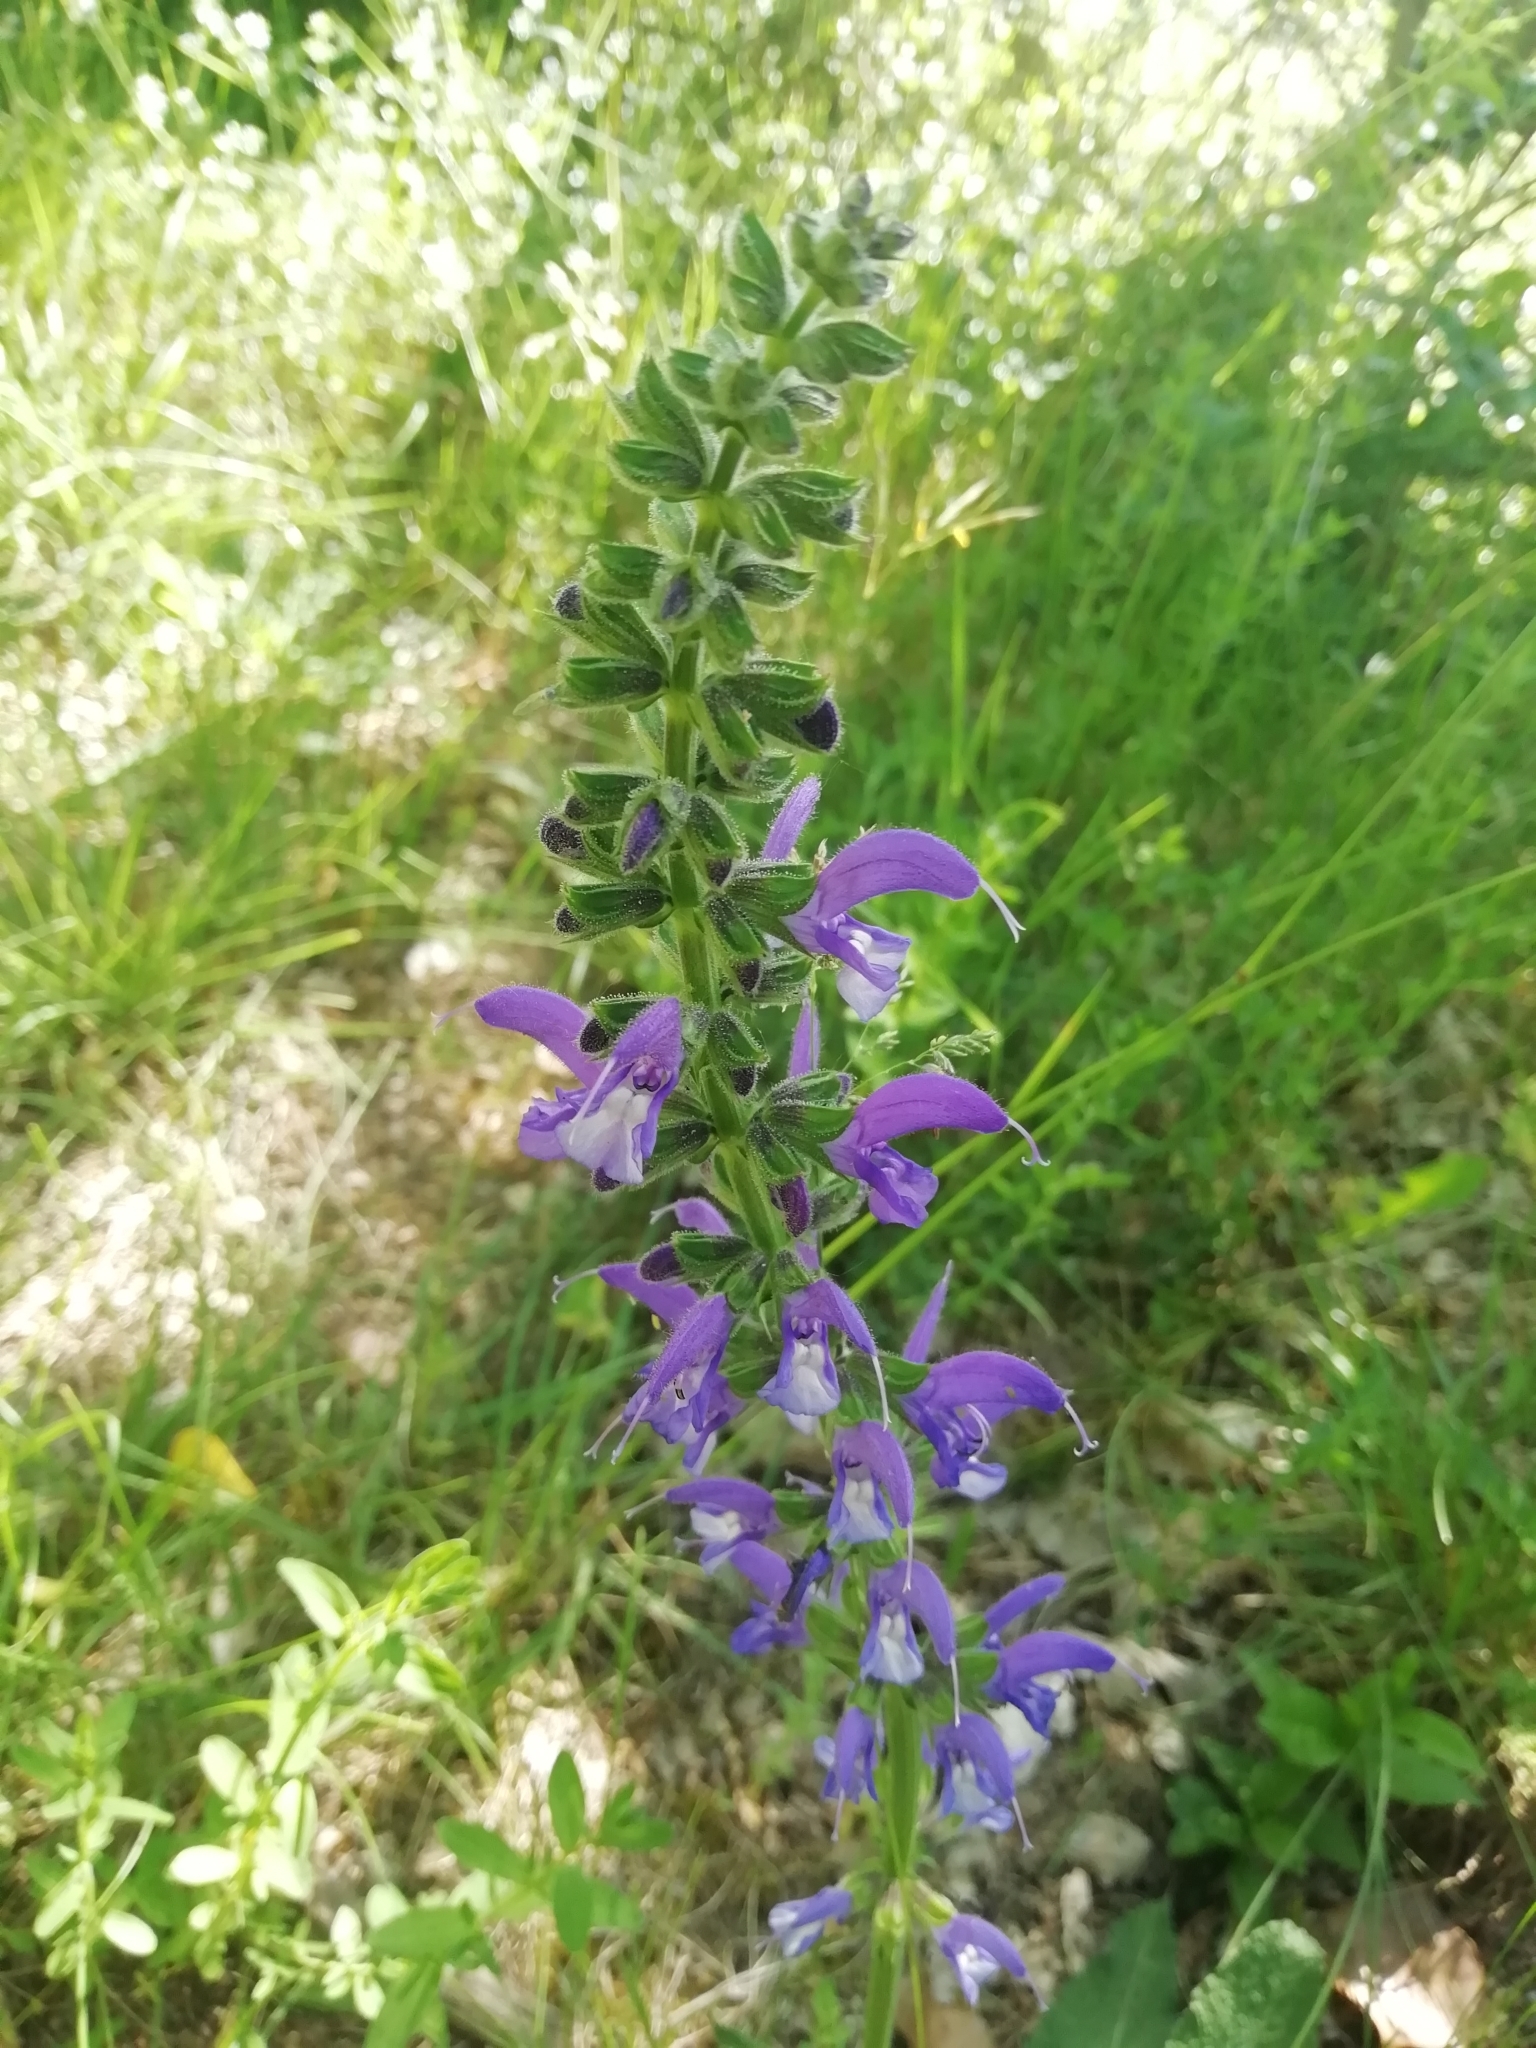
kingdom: Plantae
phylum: Tracheophyta
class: Magnoliopsida
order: Lamiales
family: Lamiaceae
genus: Salvia
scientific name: Salvia pratensis
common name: Meadow sage
